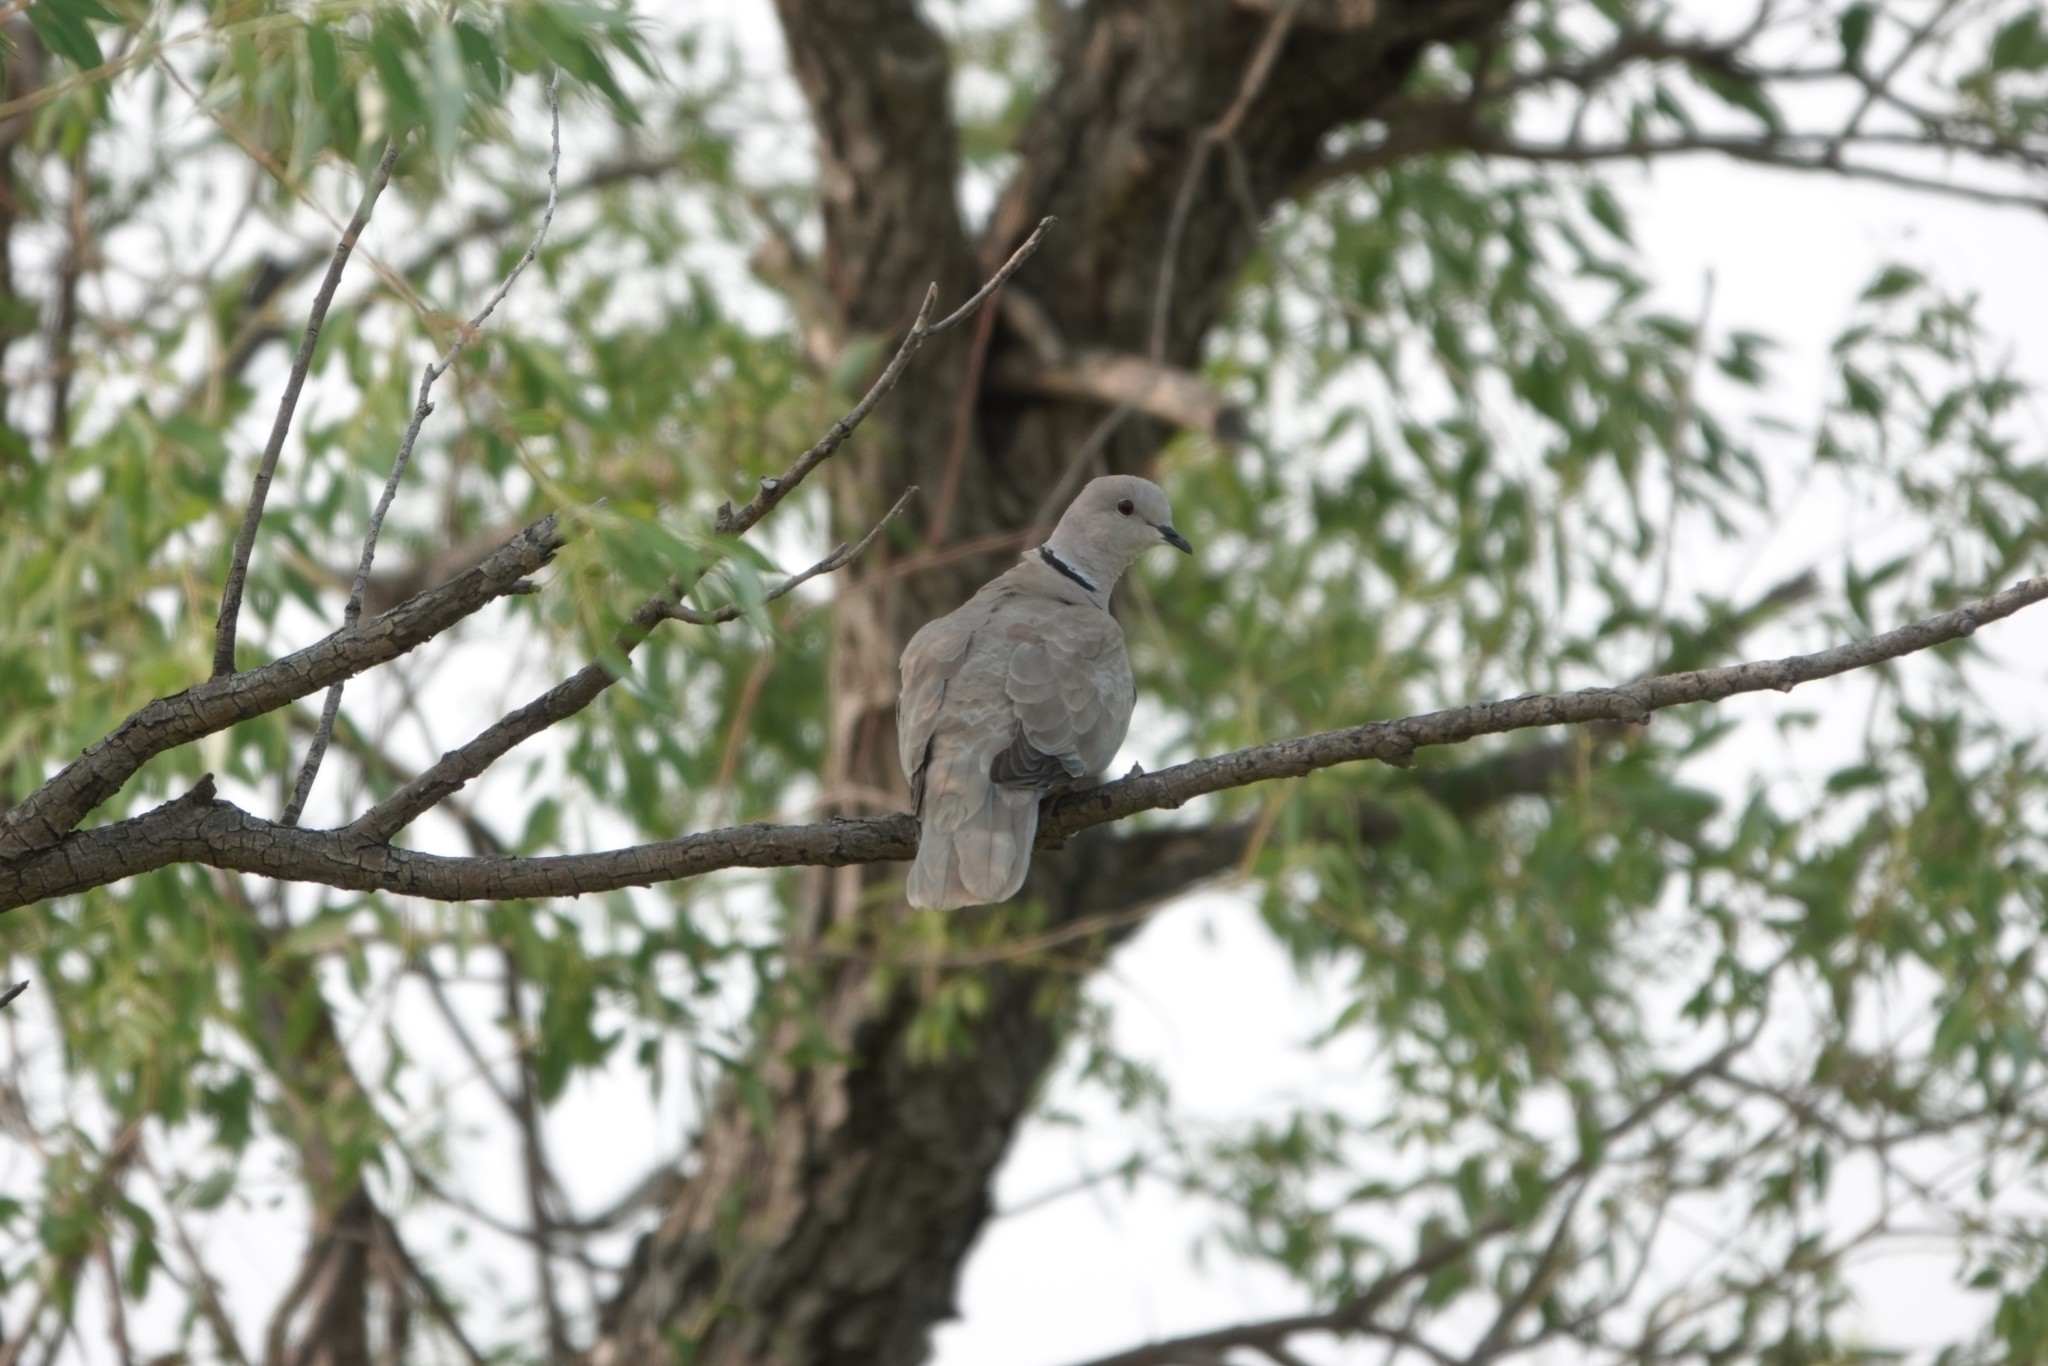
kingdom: Animalia
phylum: Chordata
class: Aves
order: Columbiformes
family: Columbidae
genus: Streptopelia
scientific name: Streptopelia decaocto
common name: Eurasian collared dove
